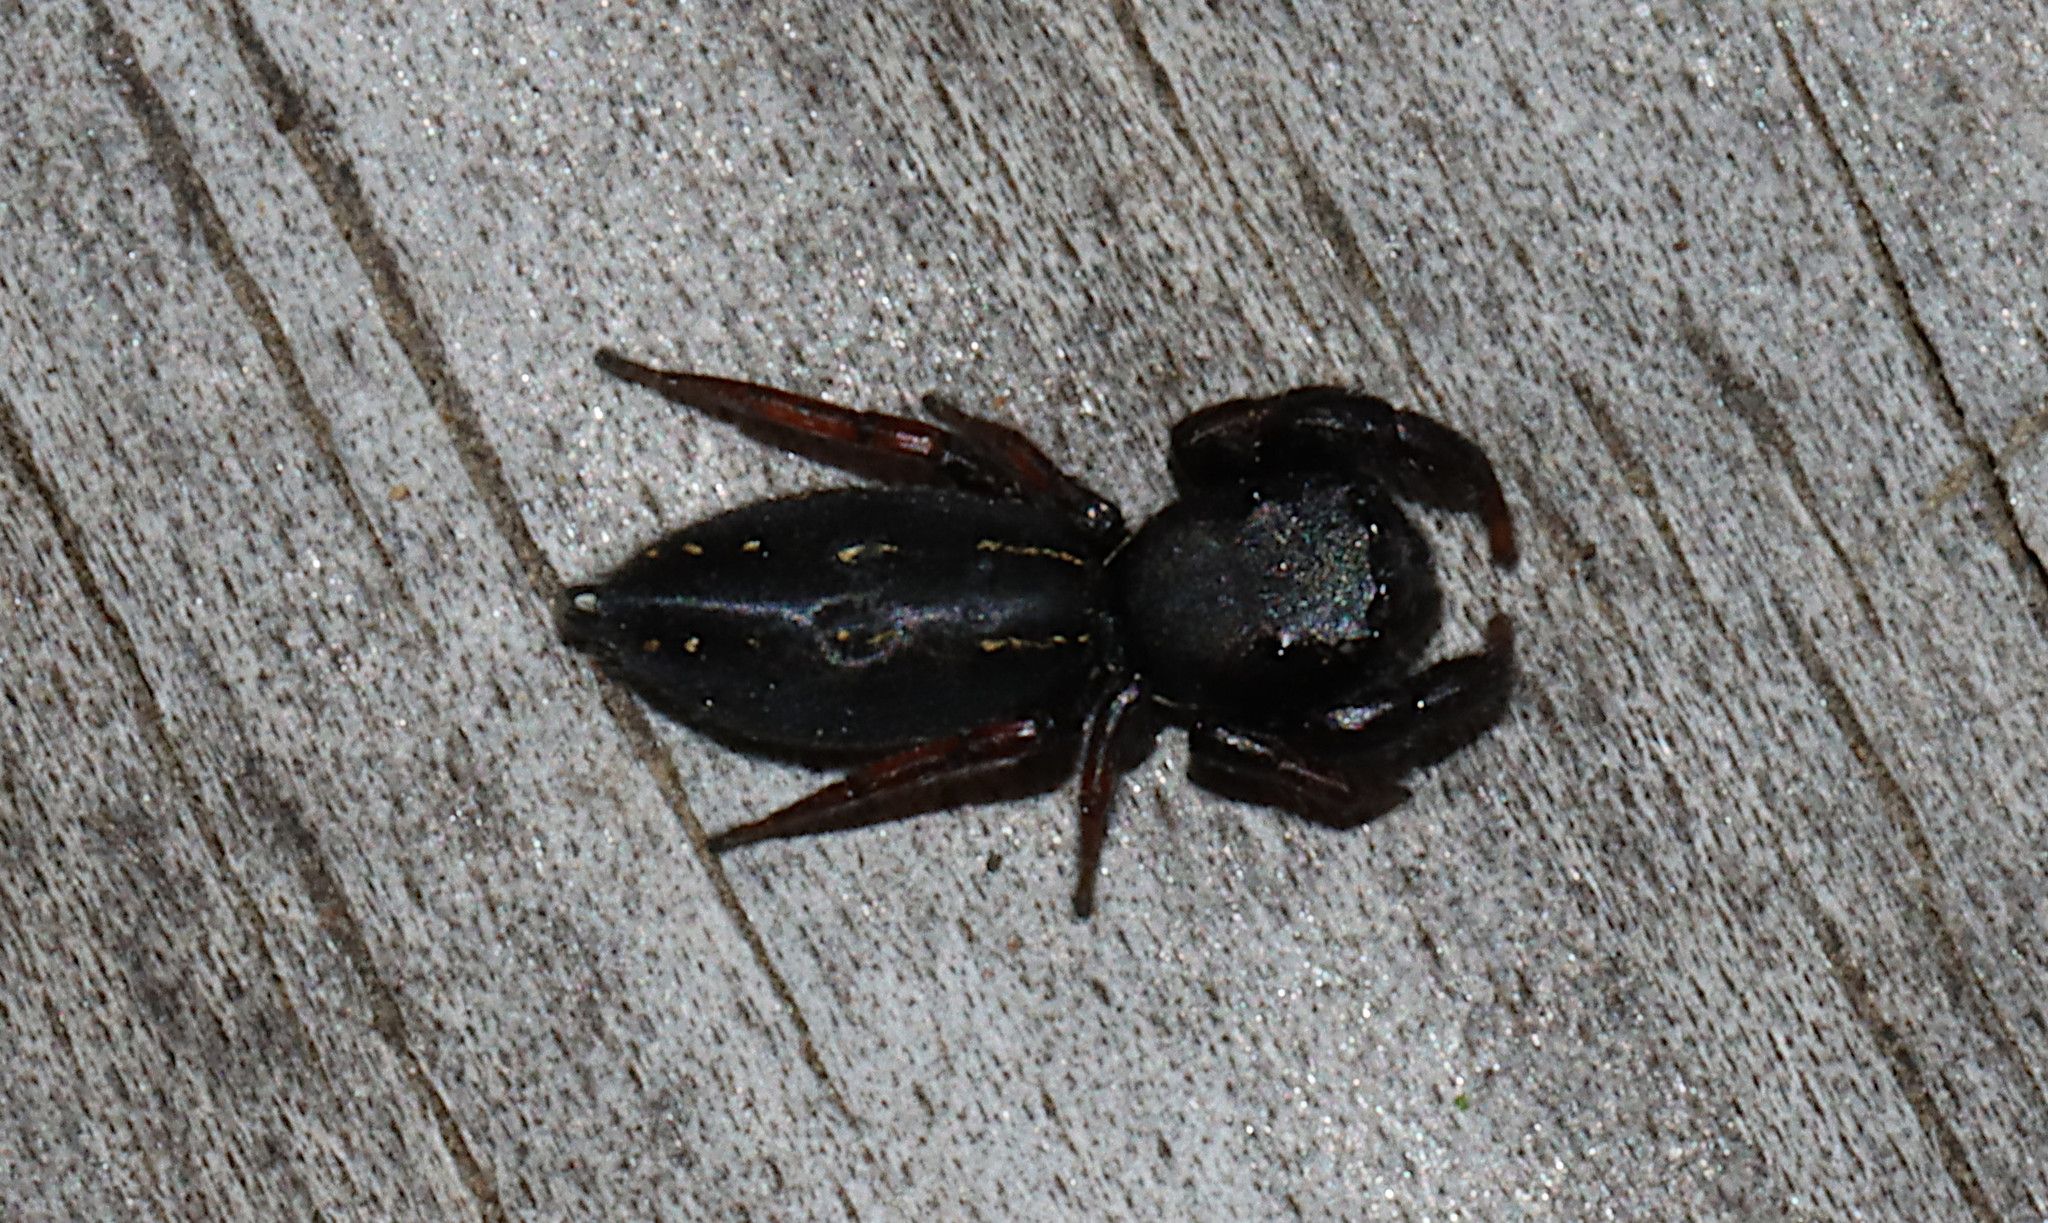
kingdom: Animalia
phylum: Arthropoda
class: Arachnida
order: Araneae
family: Salticidae
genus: Metacyrba
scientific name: Metacyrba taeniola
